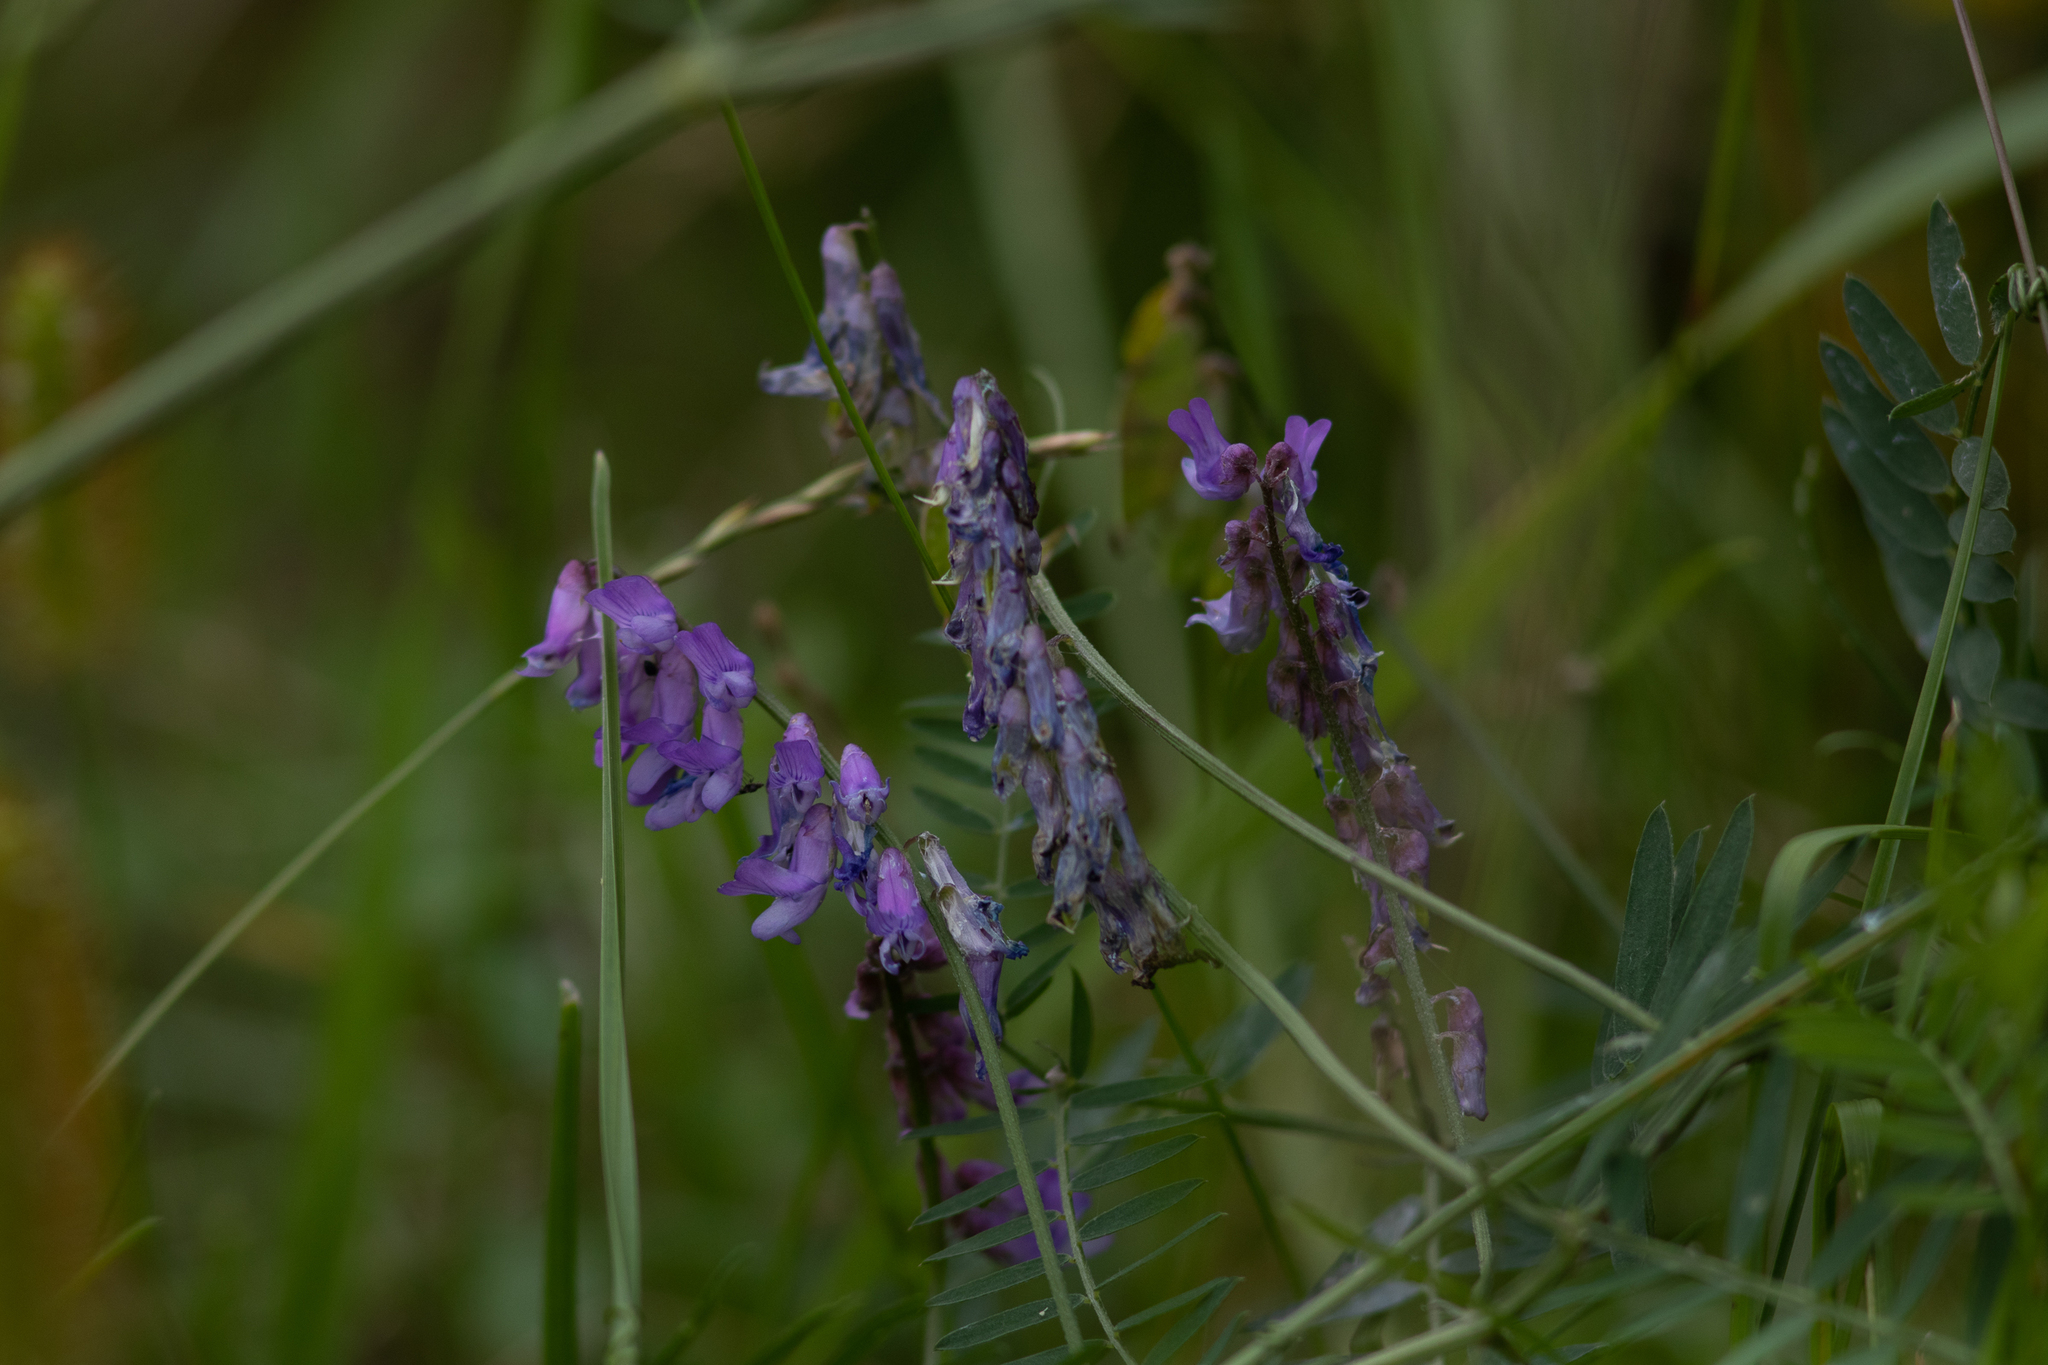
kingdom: Plantae
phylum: Tracheophyta
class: Magnoliopsida
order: Fabales
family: Fabaceae
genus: Vicia
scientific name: Vicia cracca
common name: Bird vetch
